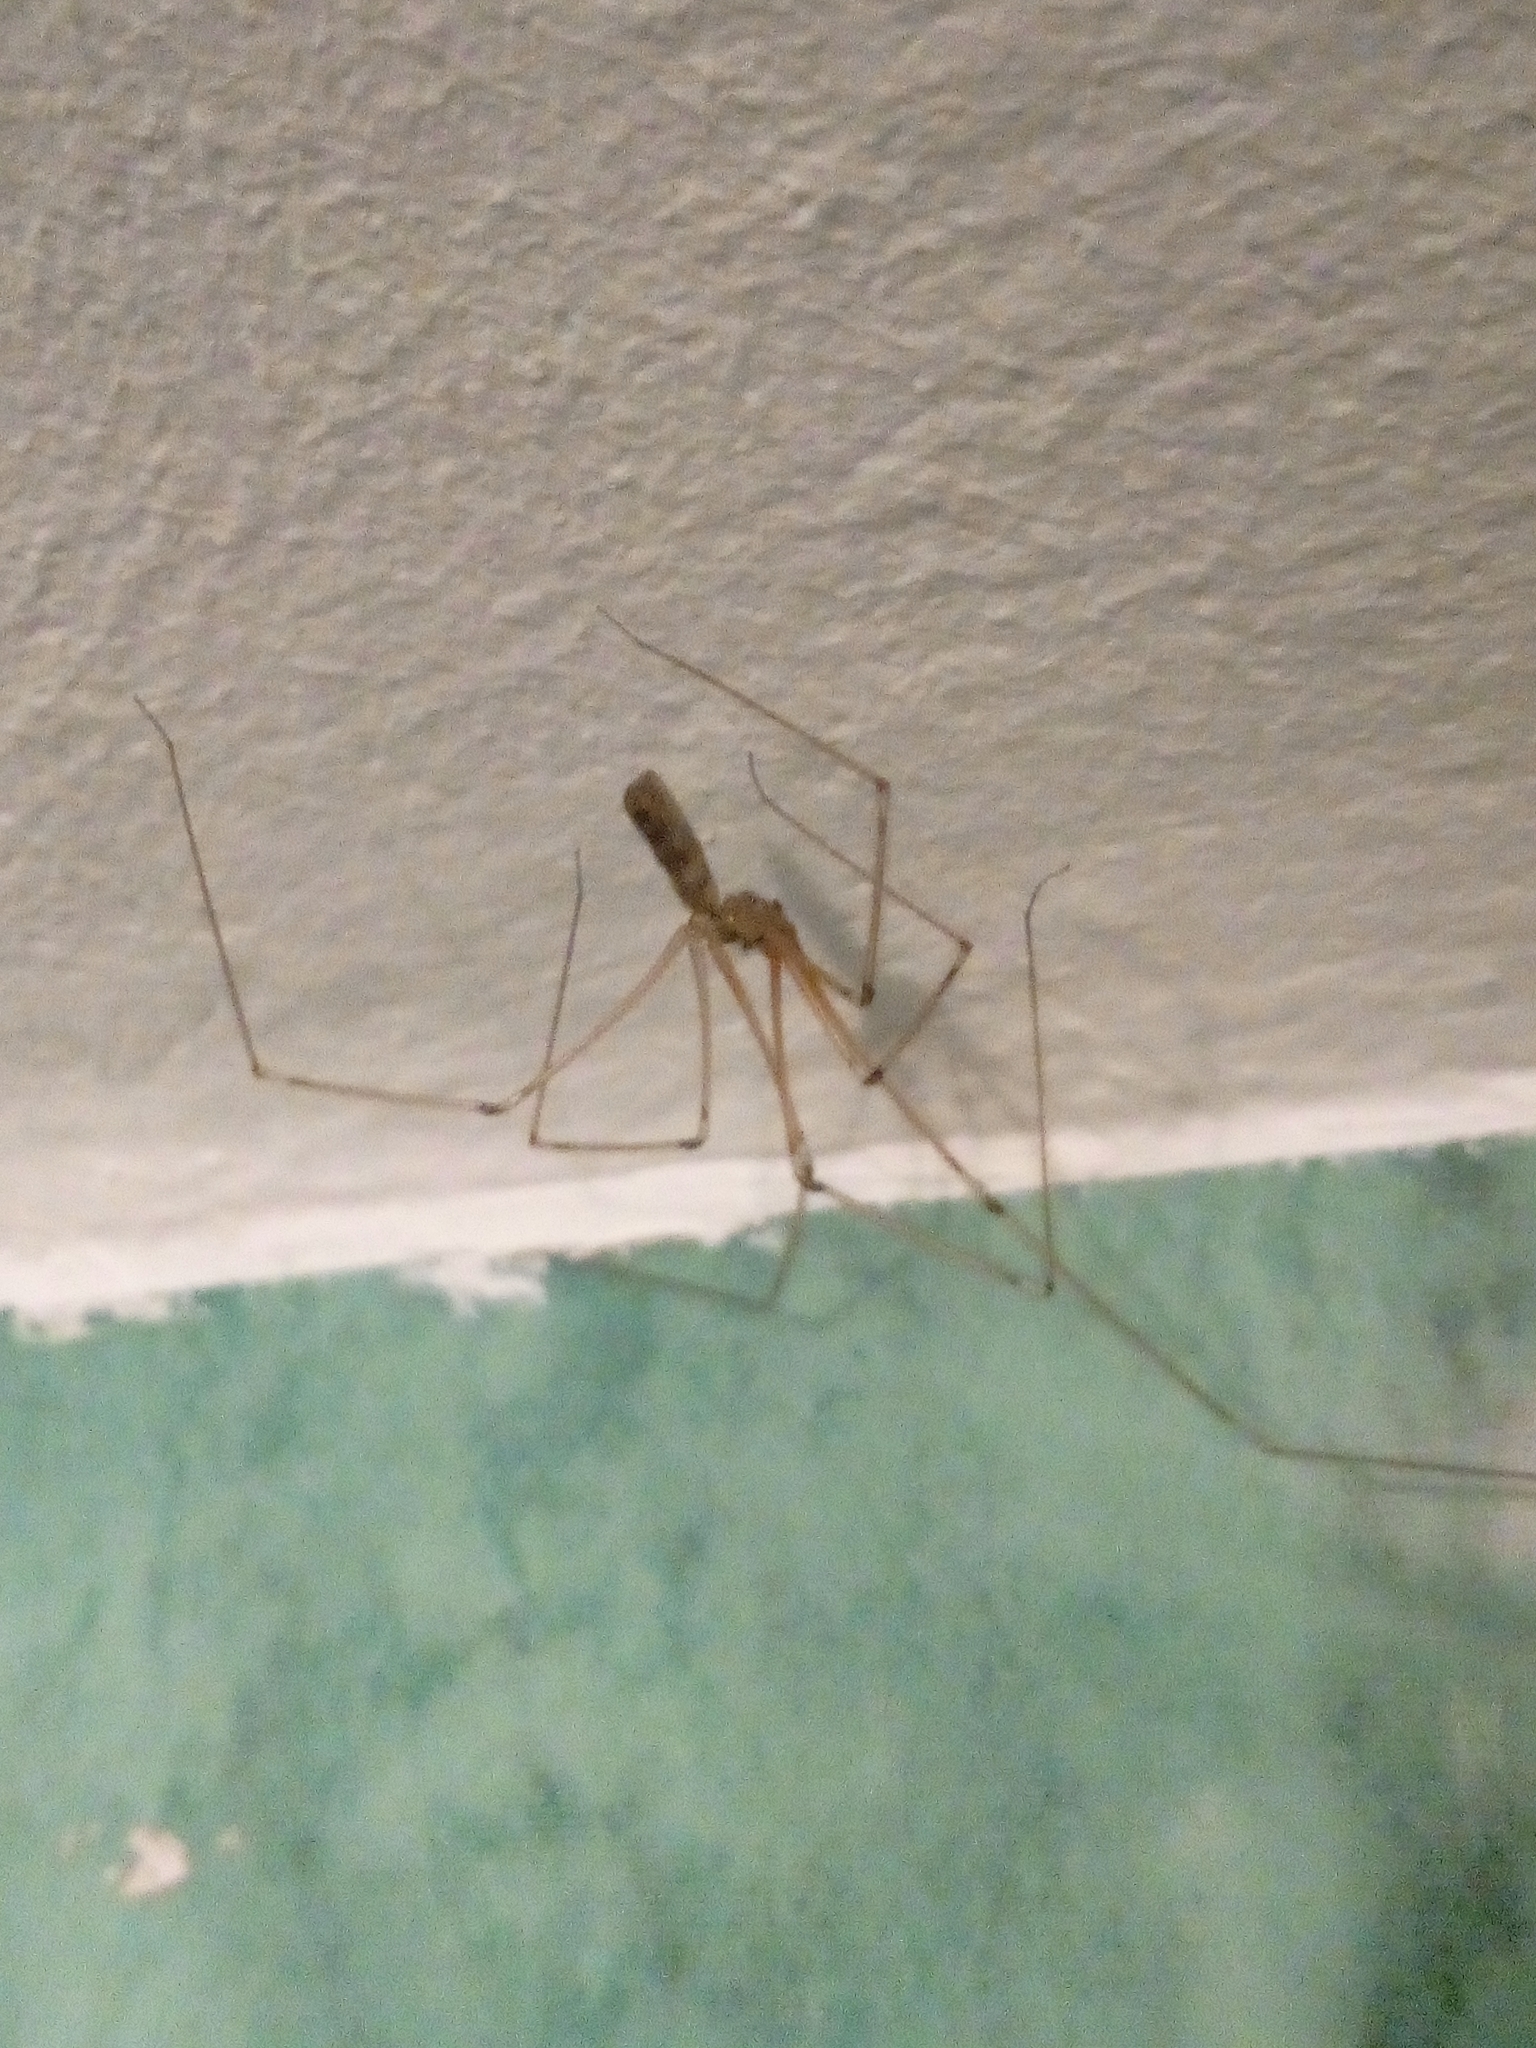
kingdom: Animalia
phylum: Arthropoda
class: Arachnida
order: Araneae
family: Pholcidae
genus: Pholcus
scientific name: Pholcus phalangioides
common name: Longbodied cellar spider
